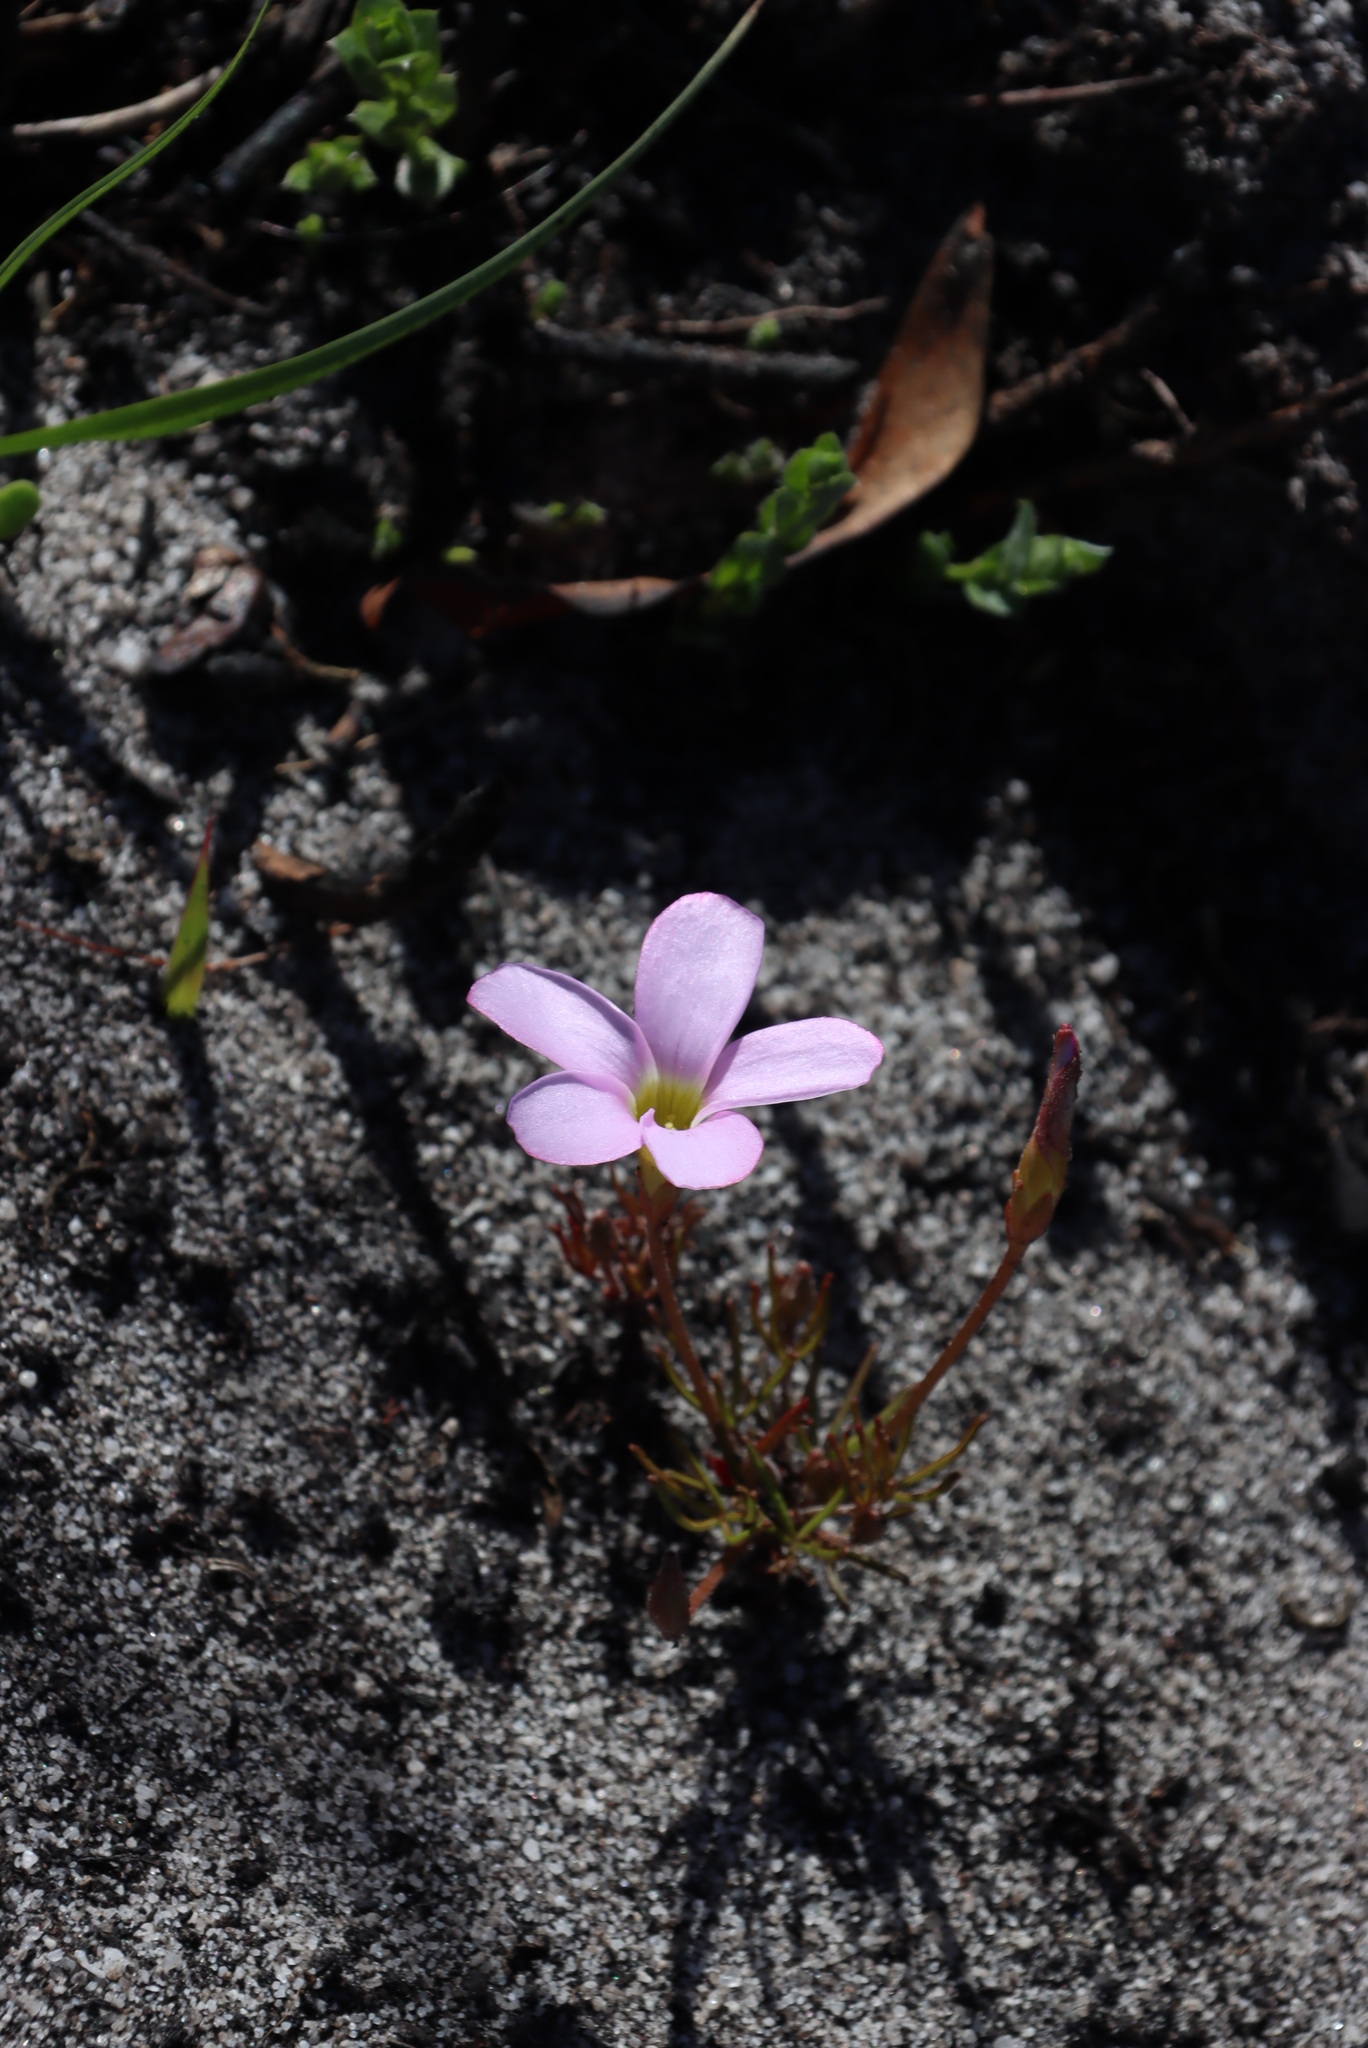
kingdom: Plantae
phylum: Tracheophyta
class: Magnoliopsida
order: Oxalidales
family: Oxalidaceae
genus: Oxalis
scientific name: Oxalis polyphylla
